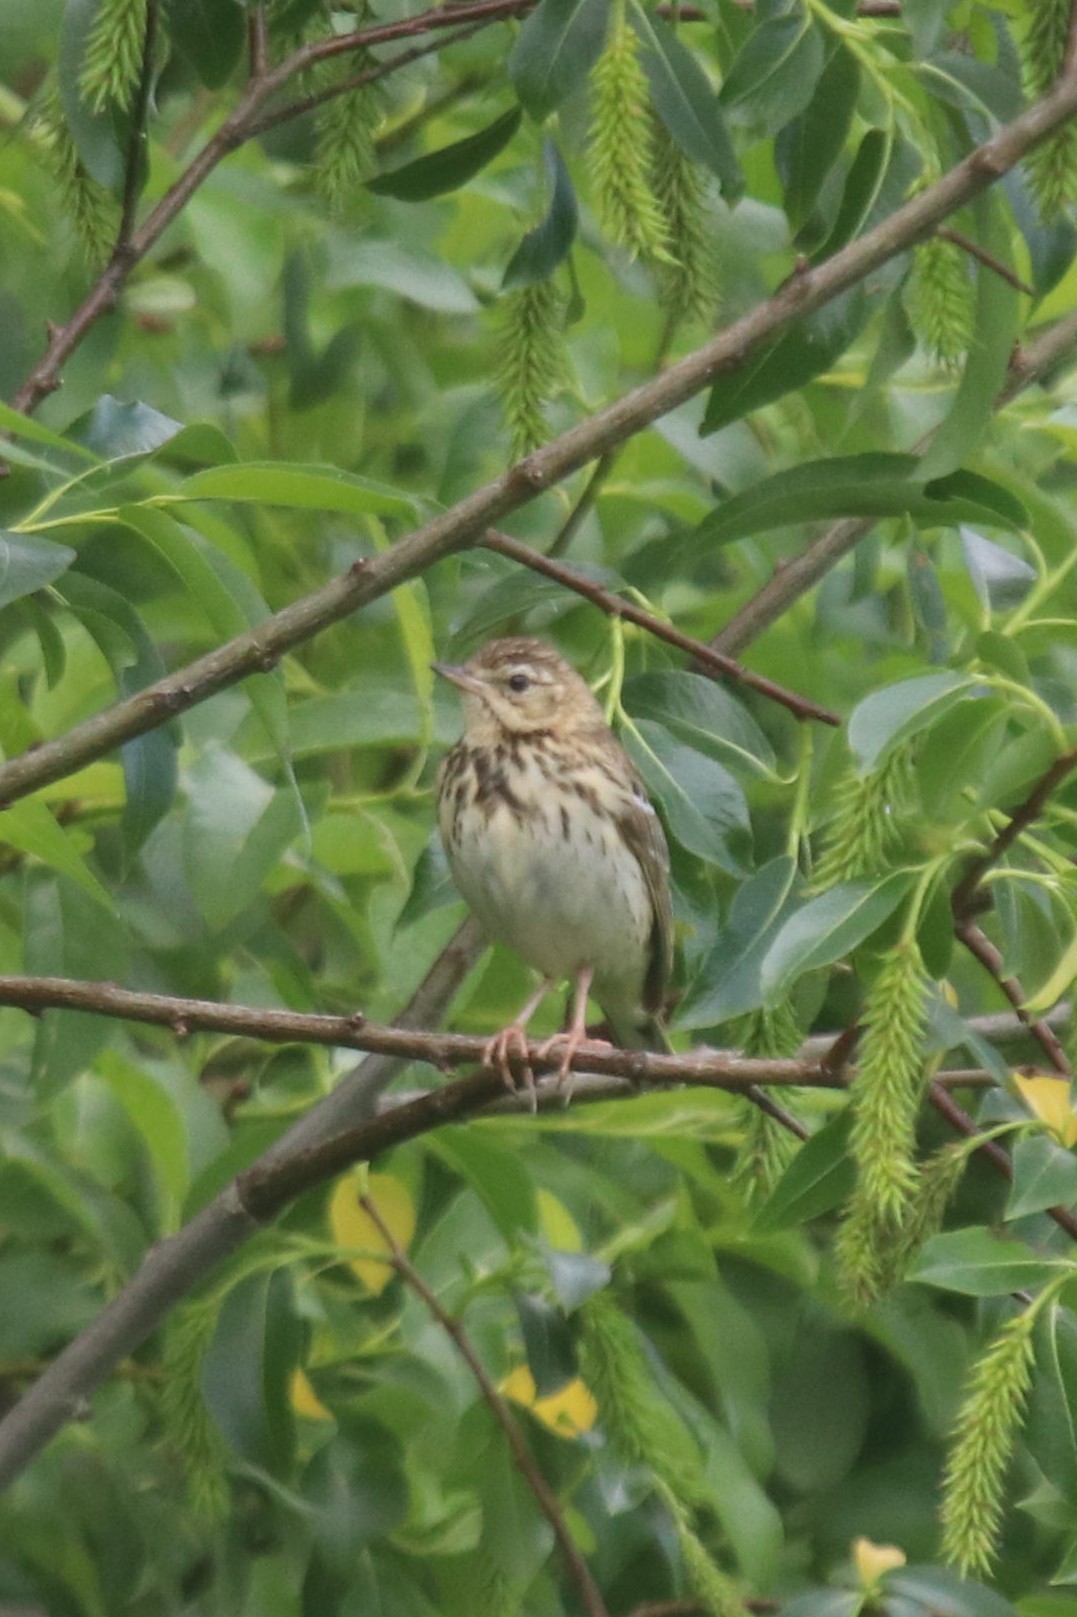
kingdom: Animalia
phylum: Chordata
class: Aves
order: Passeriformes
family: Motacillidae
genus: Anthus
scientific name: Anthus trivialis
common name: Tree pipit
